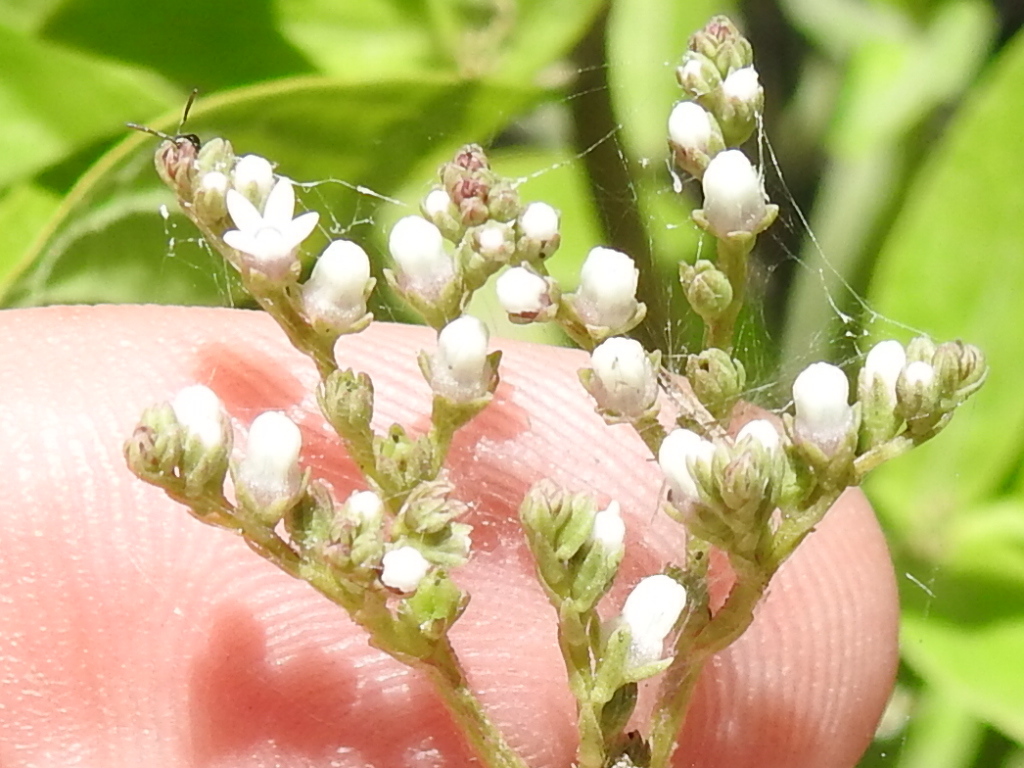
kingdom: Plantae
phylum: Tracheophyta
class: Magnoliopsida
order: Gentianales
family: Loganiaceae
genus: Mitreola
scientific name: Mitreola petiolata
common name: Lax hornpod
